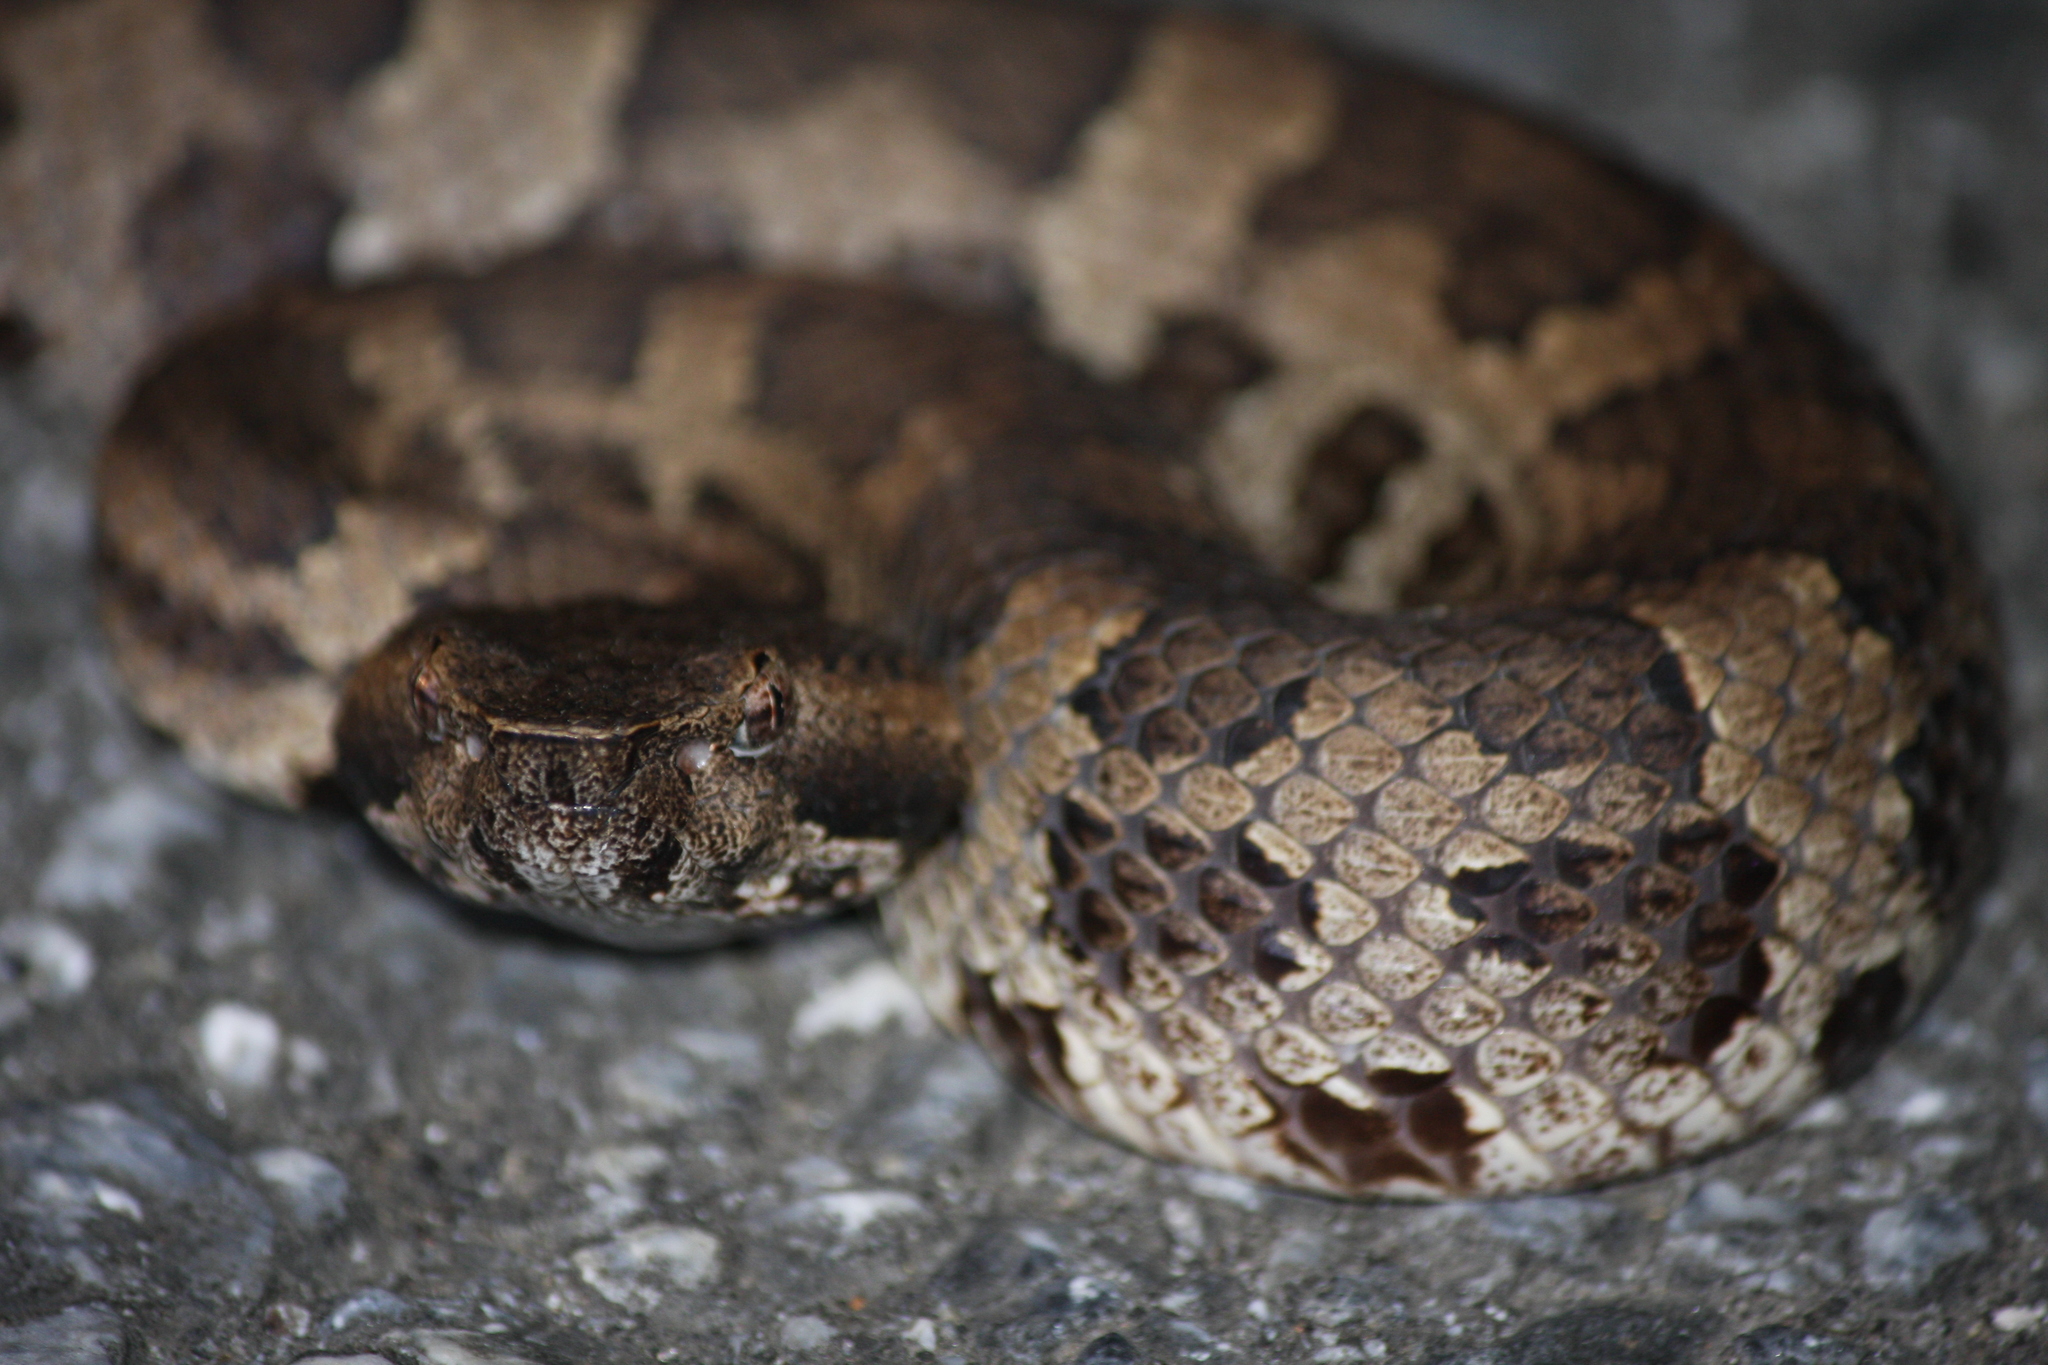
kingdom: Animalia
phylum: Chordata
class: Squamata
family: Viperidae
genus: Ovophis
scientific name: Ovophis okinavensis
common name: Okinawa pitviper
